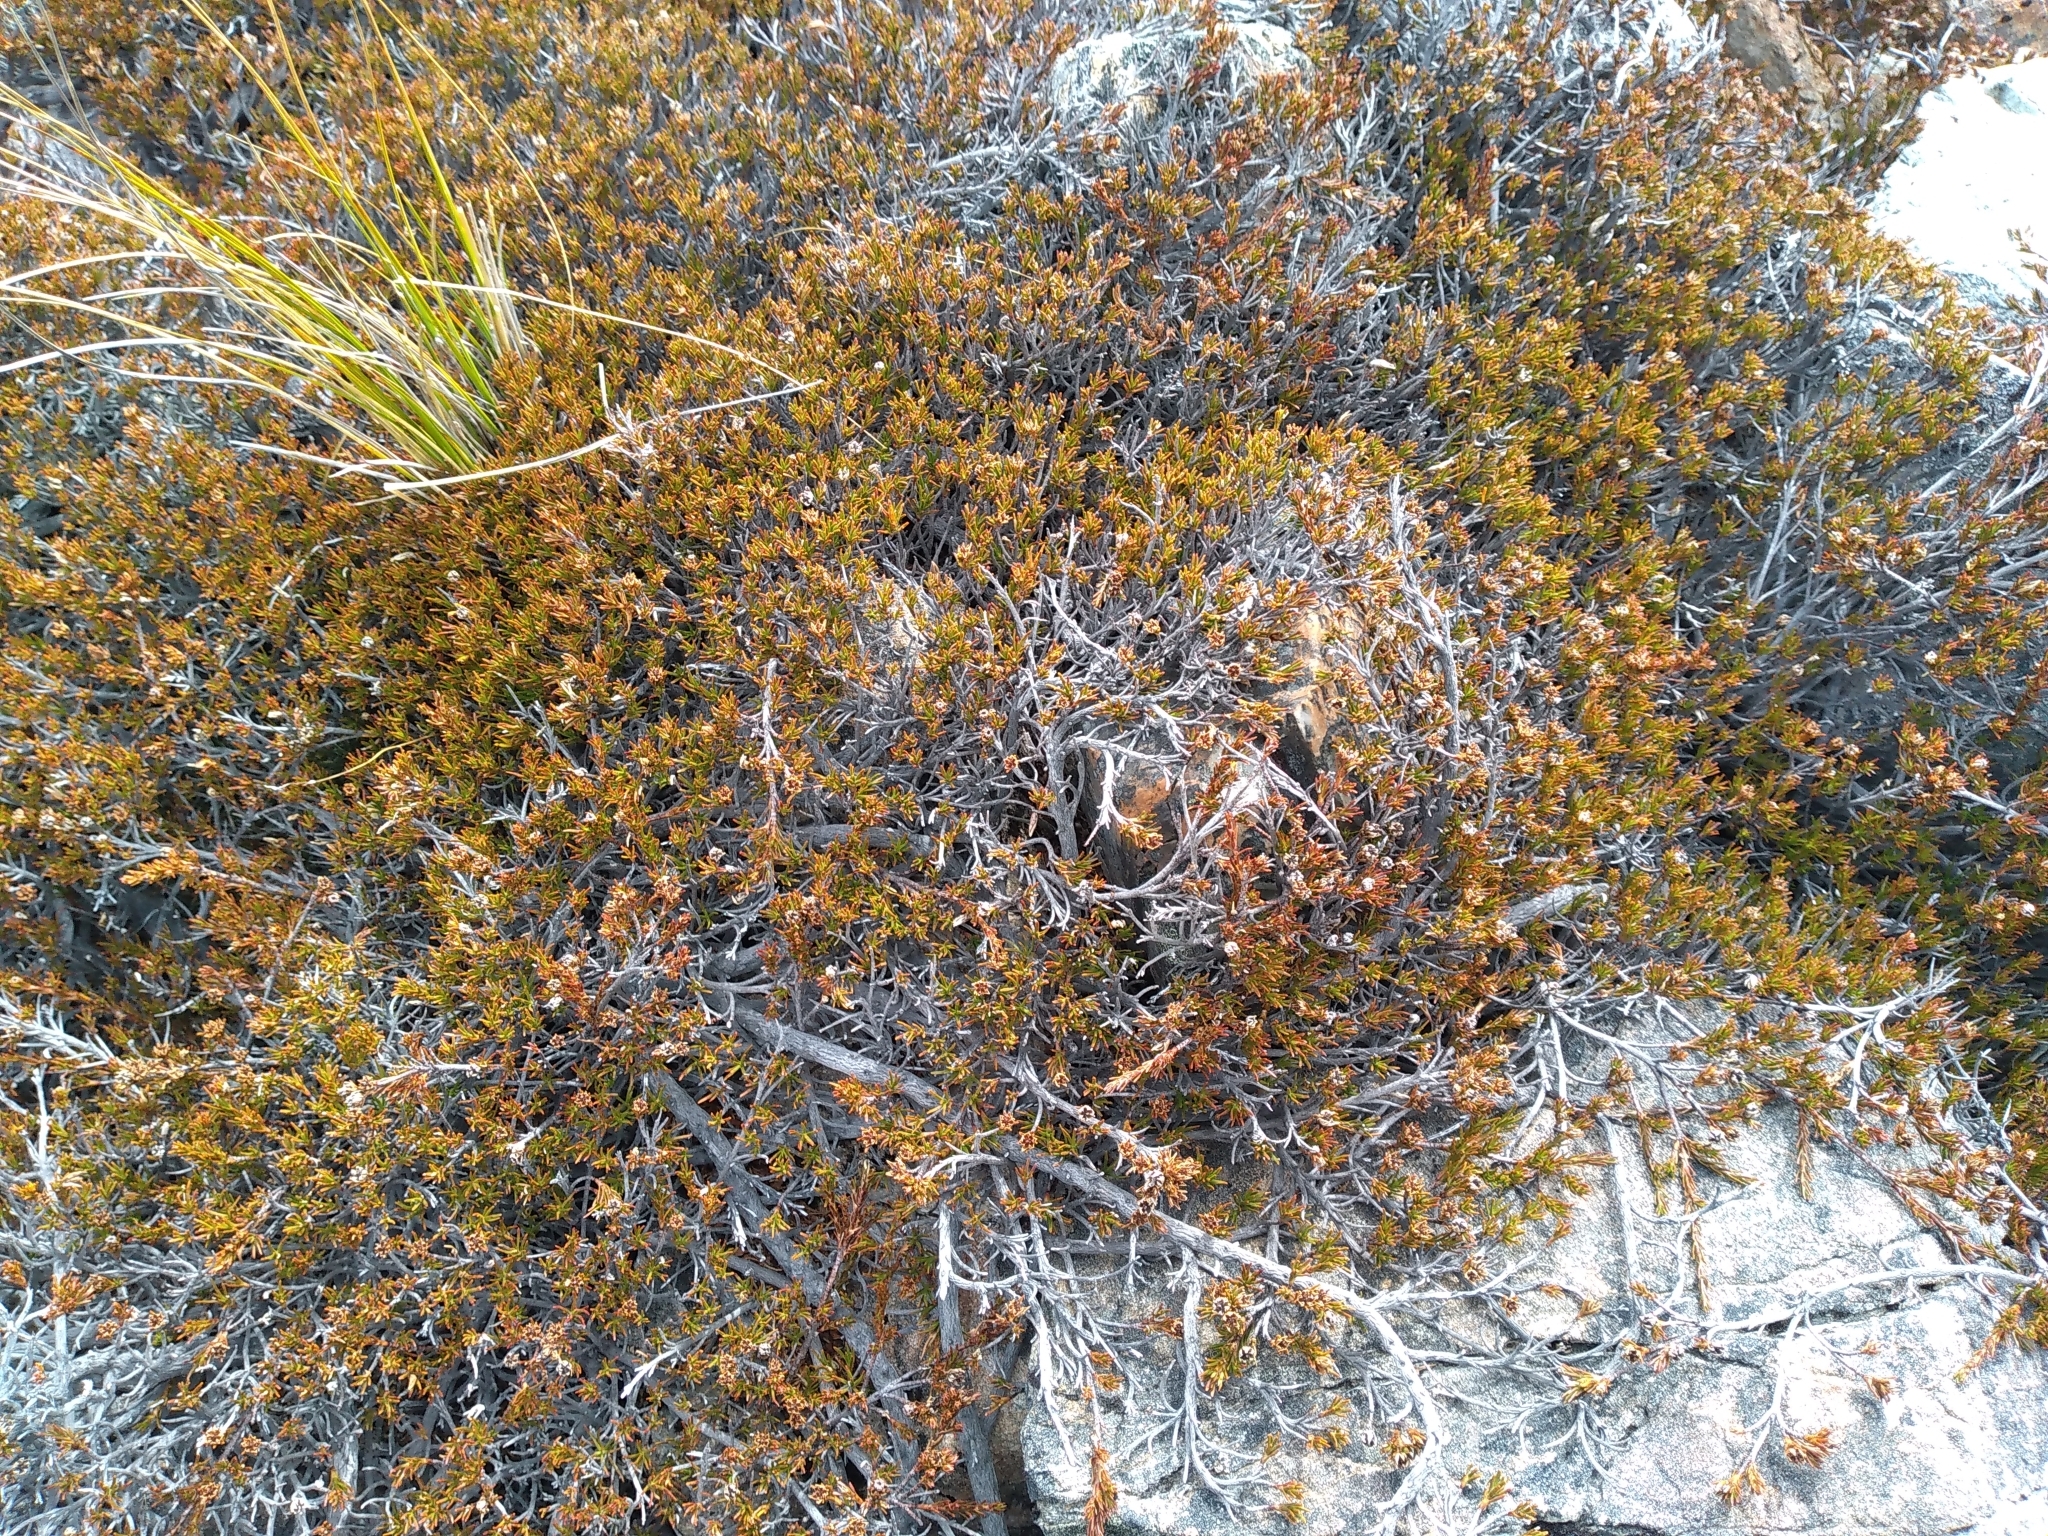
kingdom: Plantae
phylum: Tracheophyta
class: Magnoliopsida
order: Ericales
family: Ericaceae
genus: Dracophyllum
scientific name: Dracophyllum pronum
